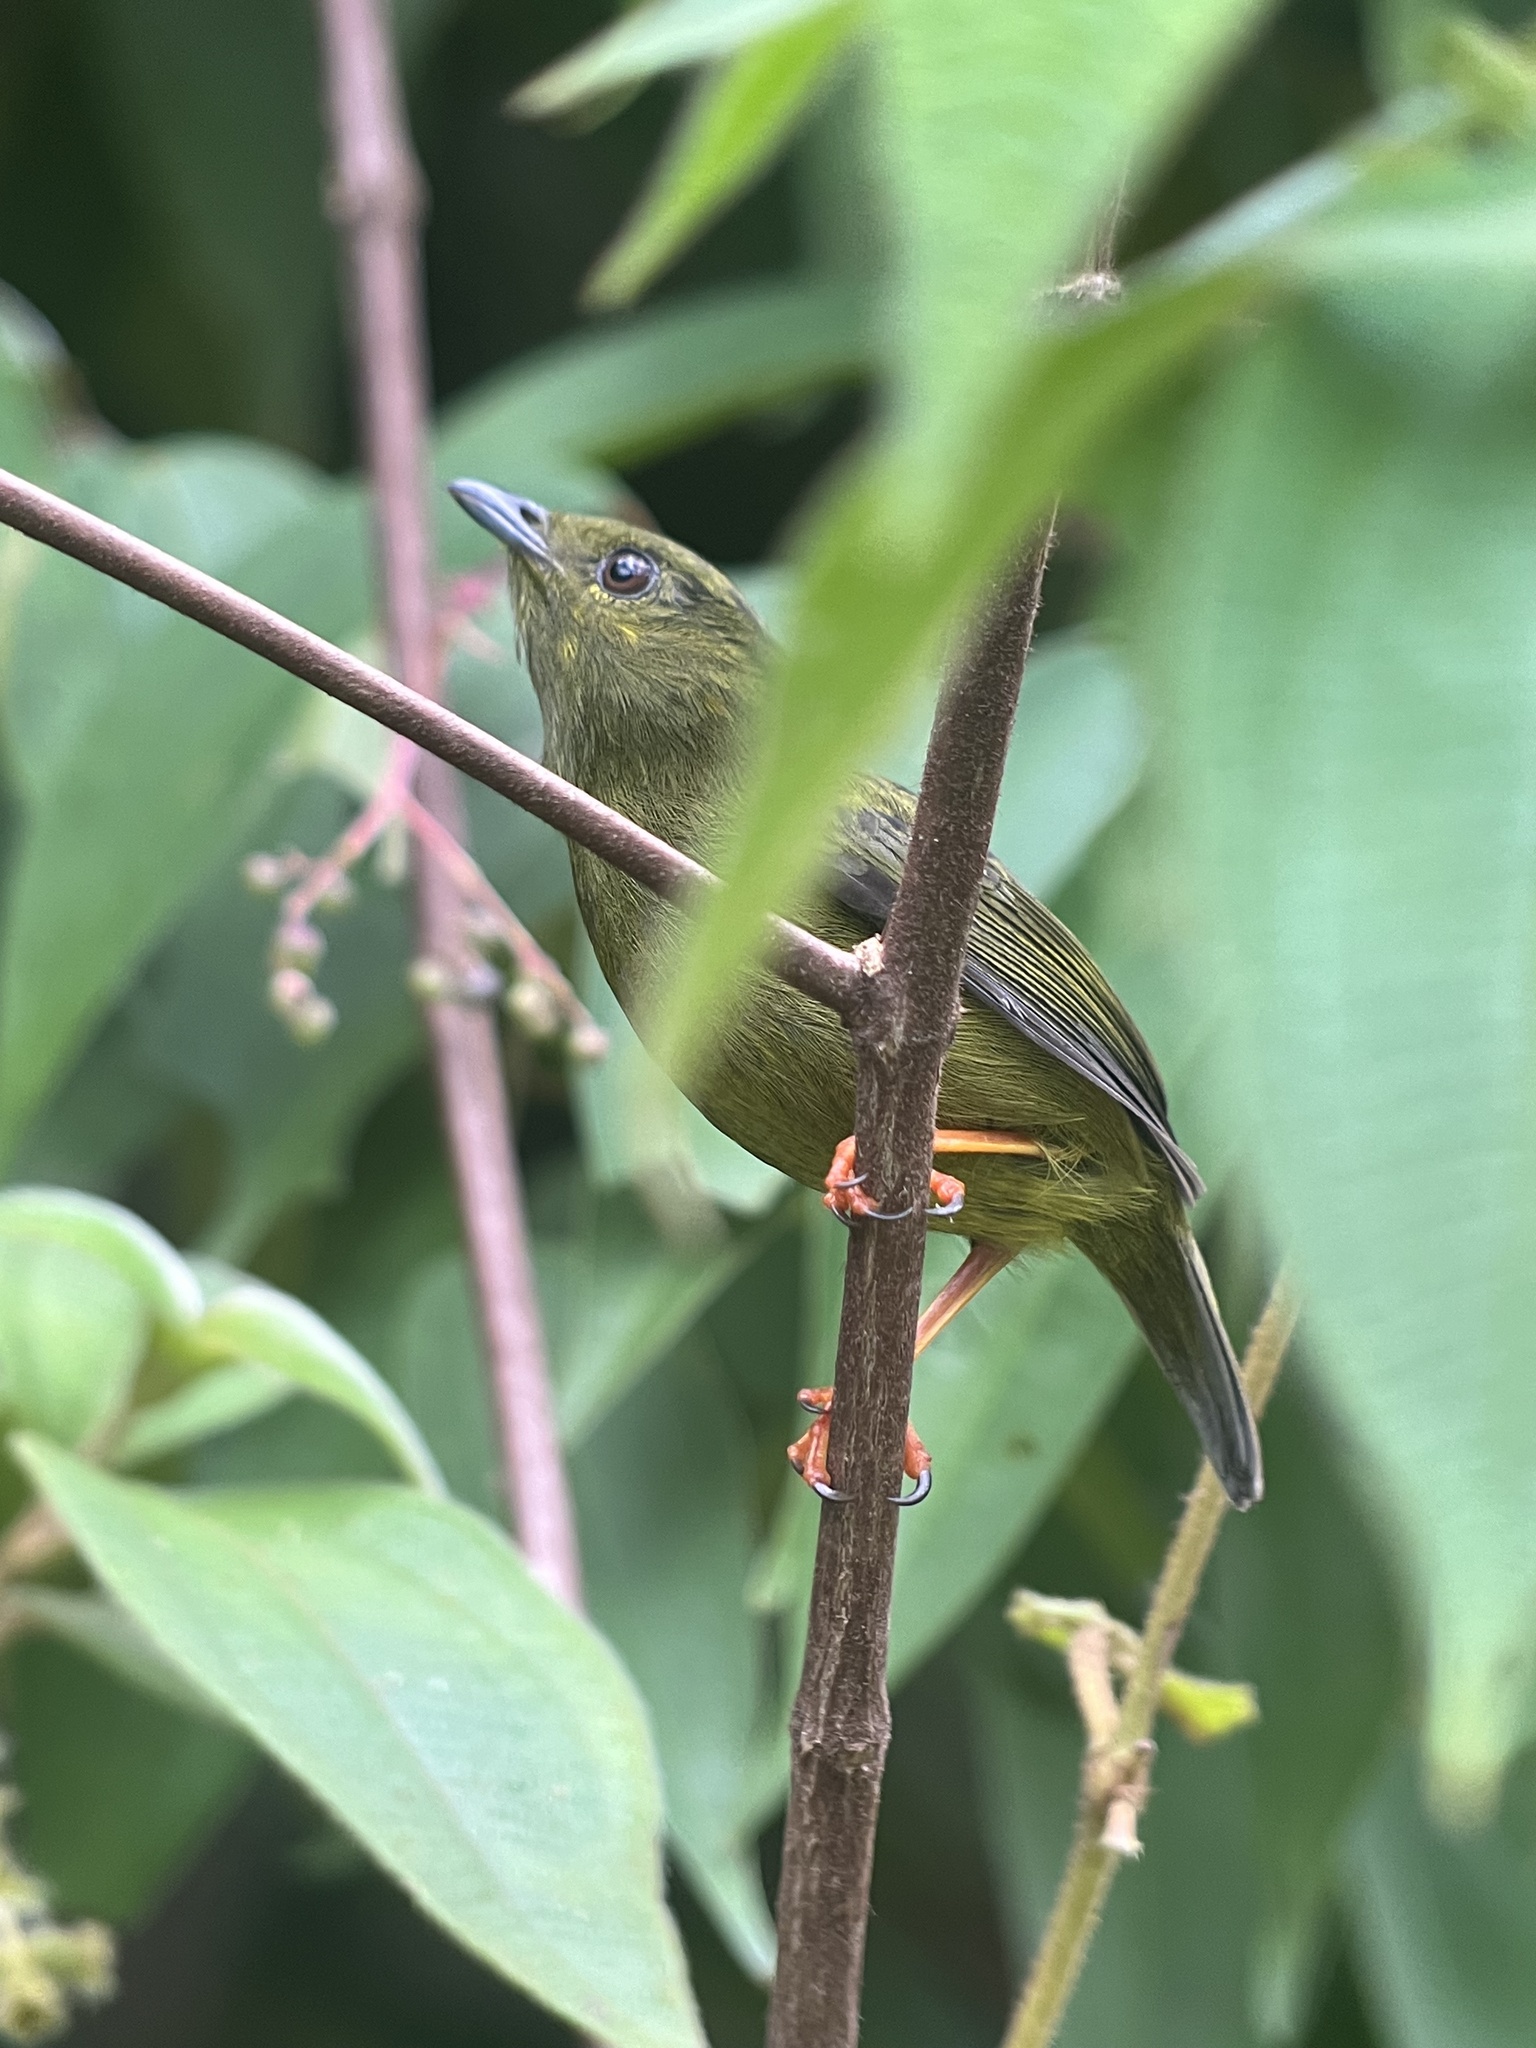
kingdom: Animalia
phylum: Chordata
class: Aves
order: Passeriformes
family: Pipridae
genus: Manacus
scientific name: Manacus vitellinus
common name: Golden-collared manakin
